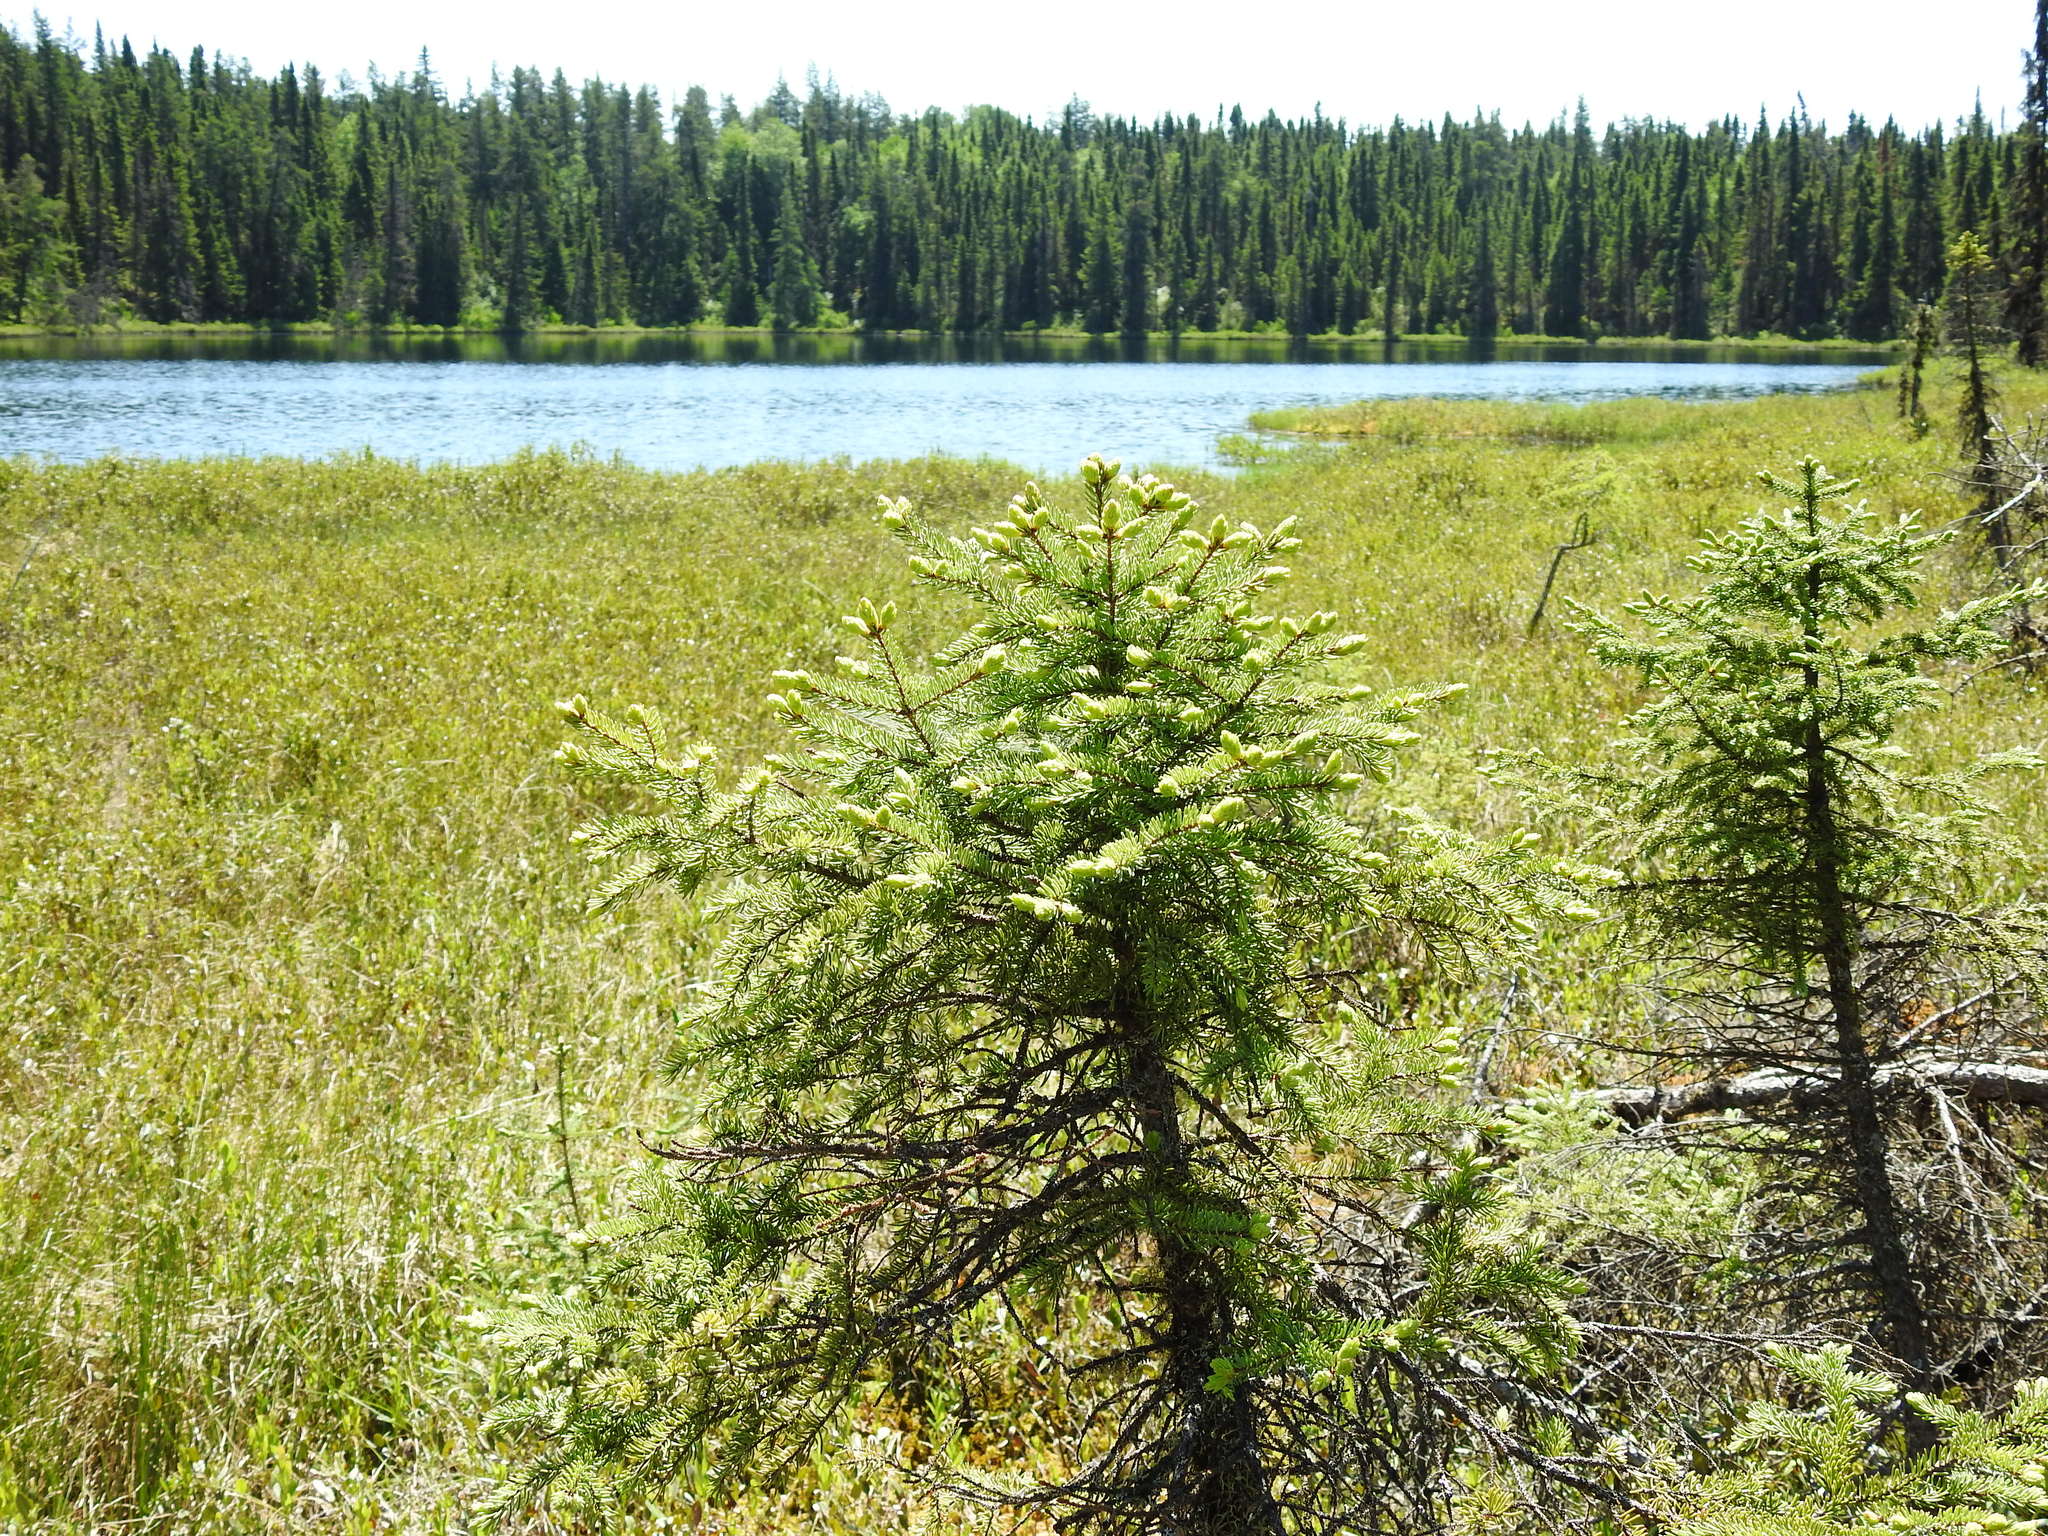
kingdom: Plantae
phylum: Tracheophyta
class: Pinopsida
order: Pinales
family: Pinaceae
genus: Picea
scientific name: Picea mariana
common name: Black spruce
